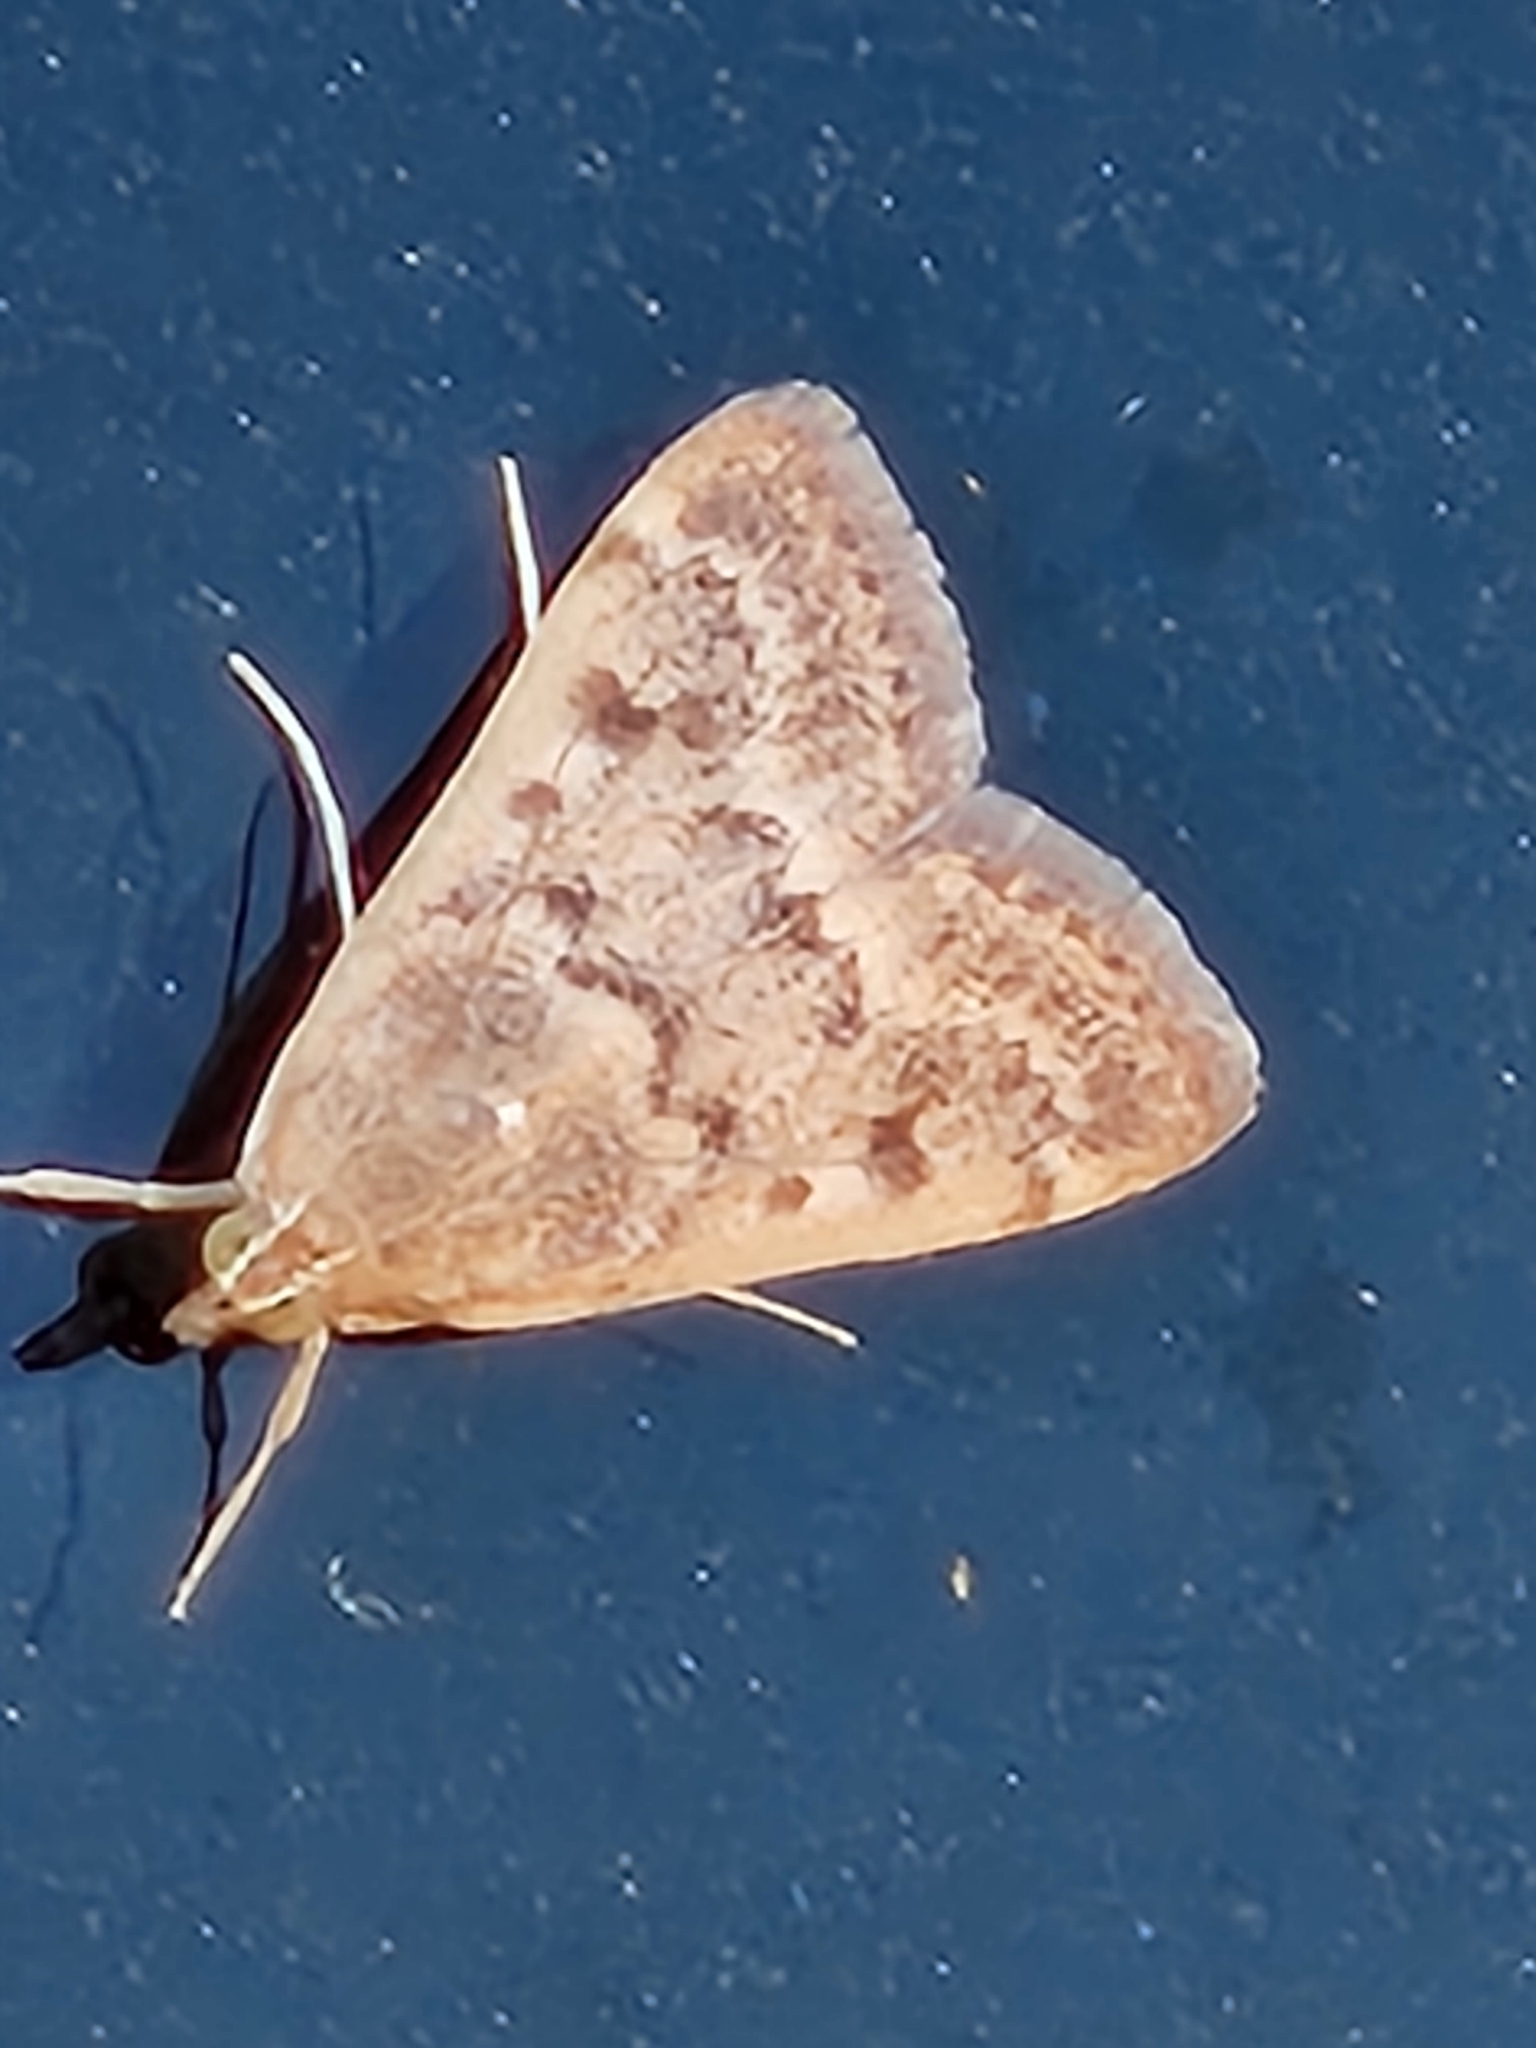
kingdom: Animalia
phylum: Arthropoda
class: Insecta
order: Lepidoptera
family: Crambidae
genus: Achyra
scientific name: Achyra rantalis
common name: Garden webworm
